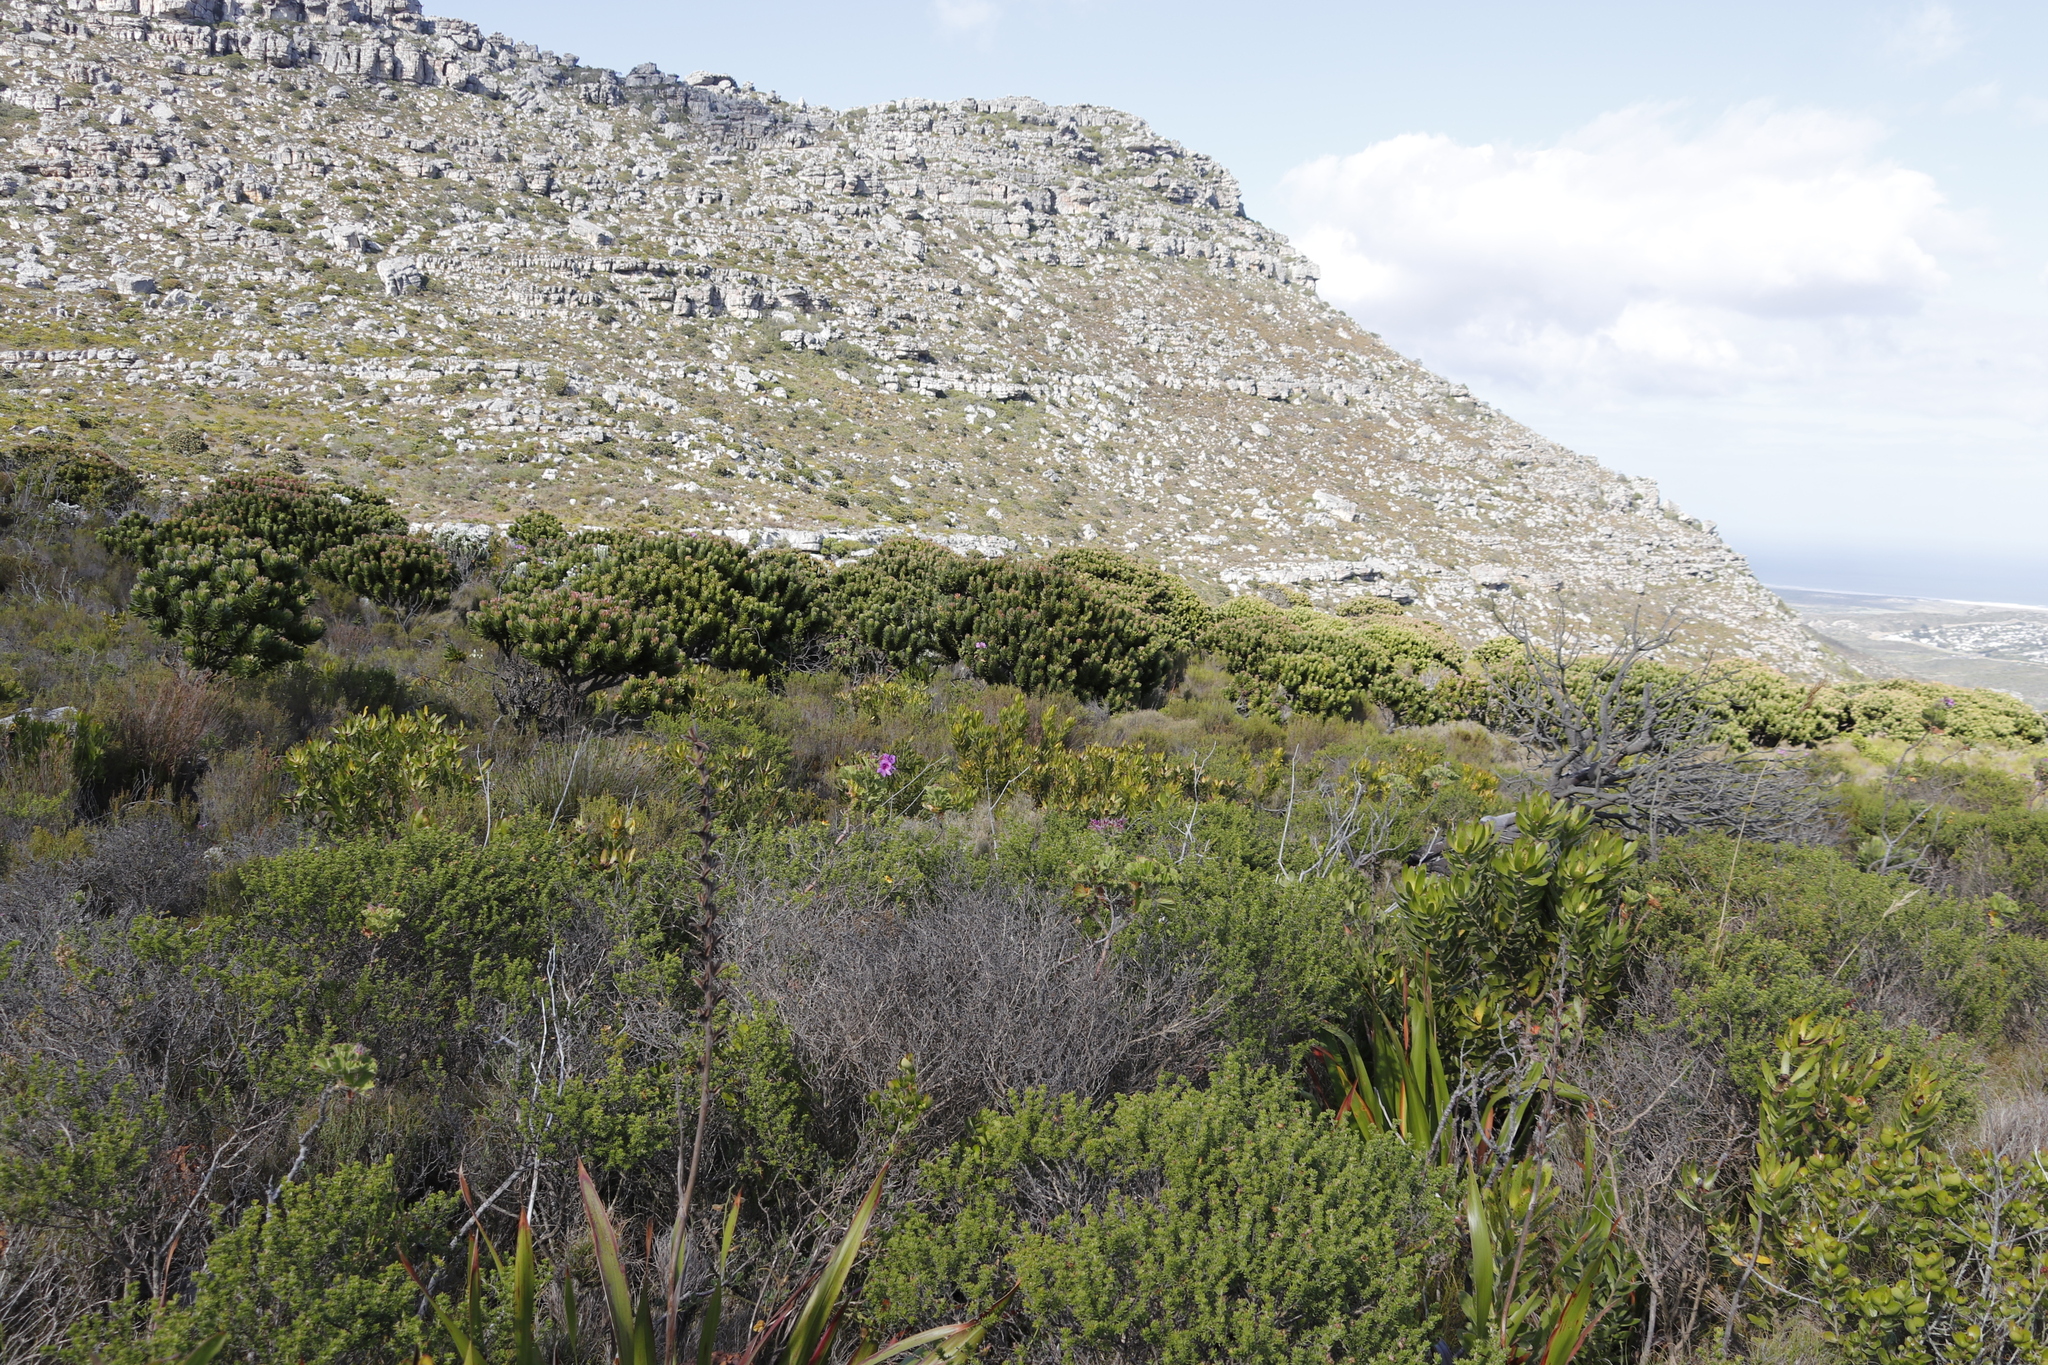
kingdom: Plantae
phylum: Tracheophyta
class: Magnoliopsida
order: Proteales
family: Proteaceae
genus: Mimetes
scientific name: Mimetes fimbriifolius
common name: Fringed bottlebrush
